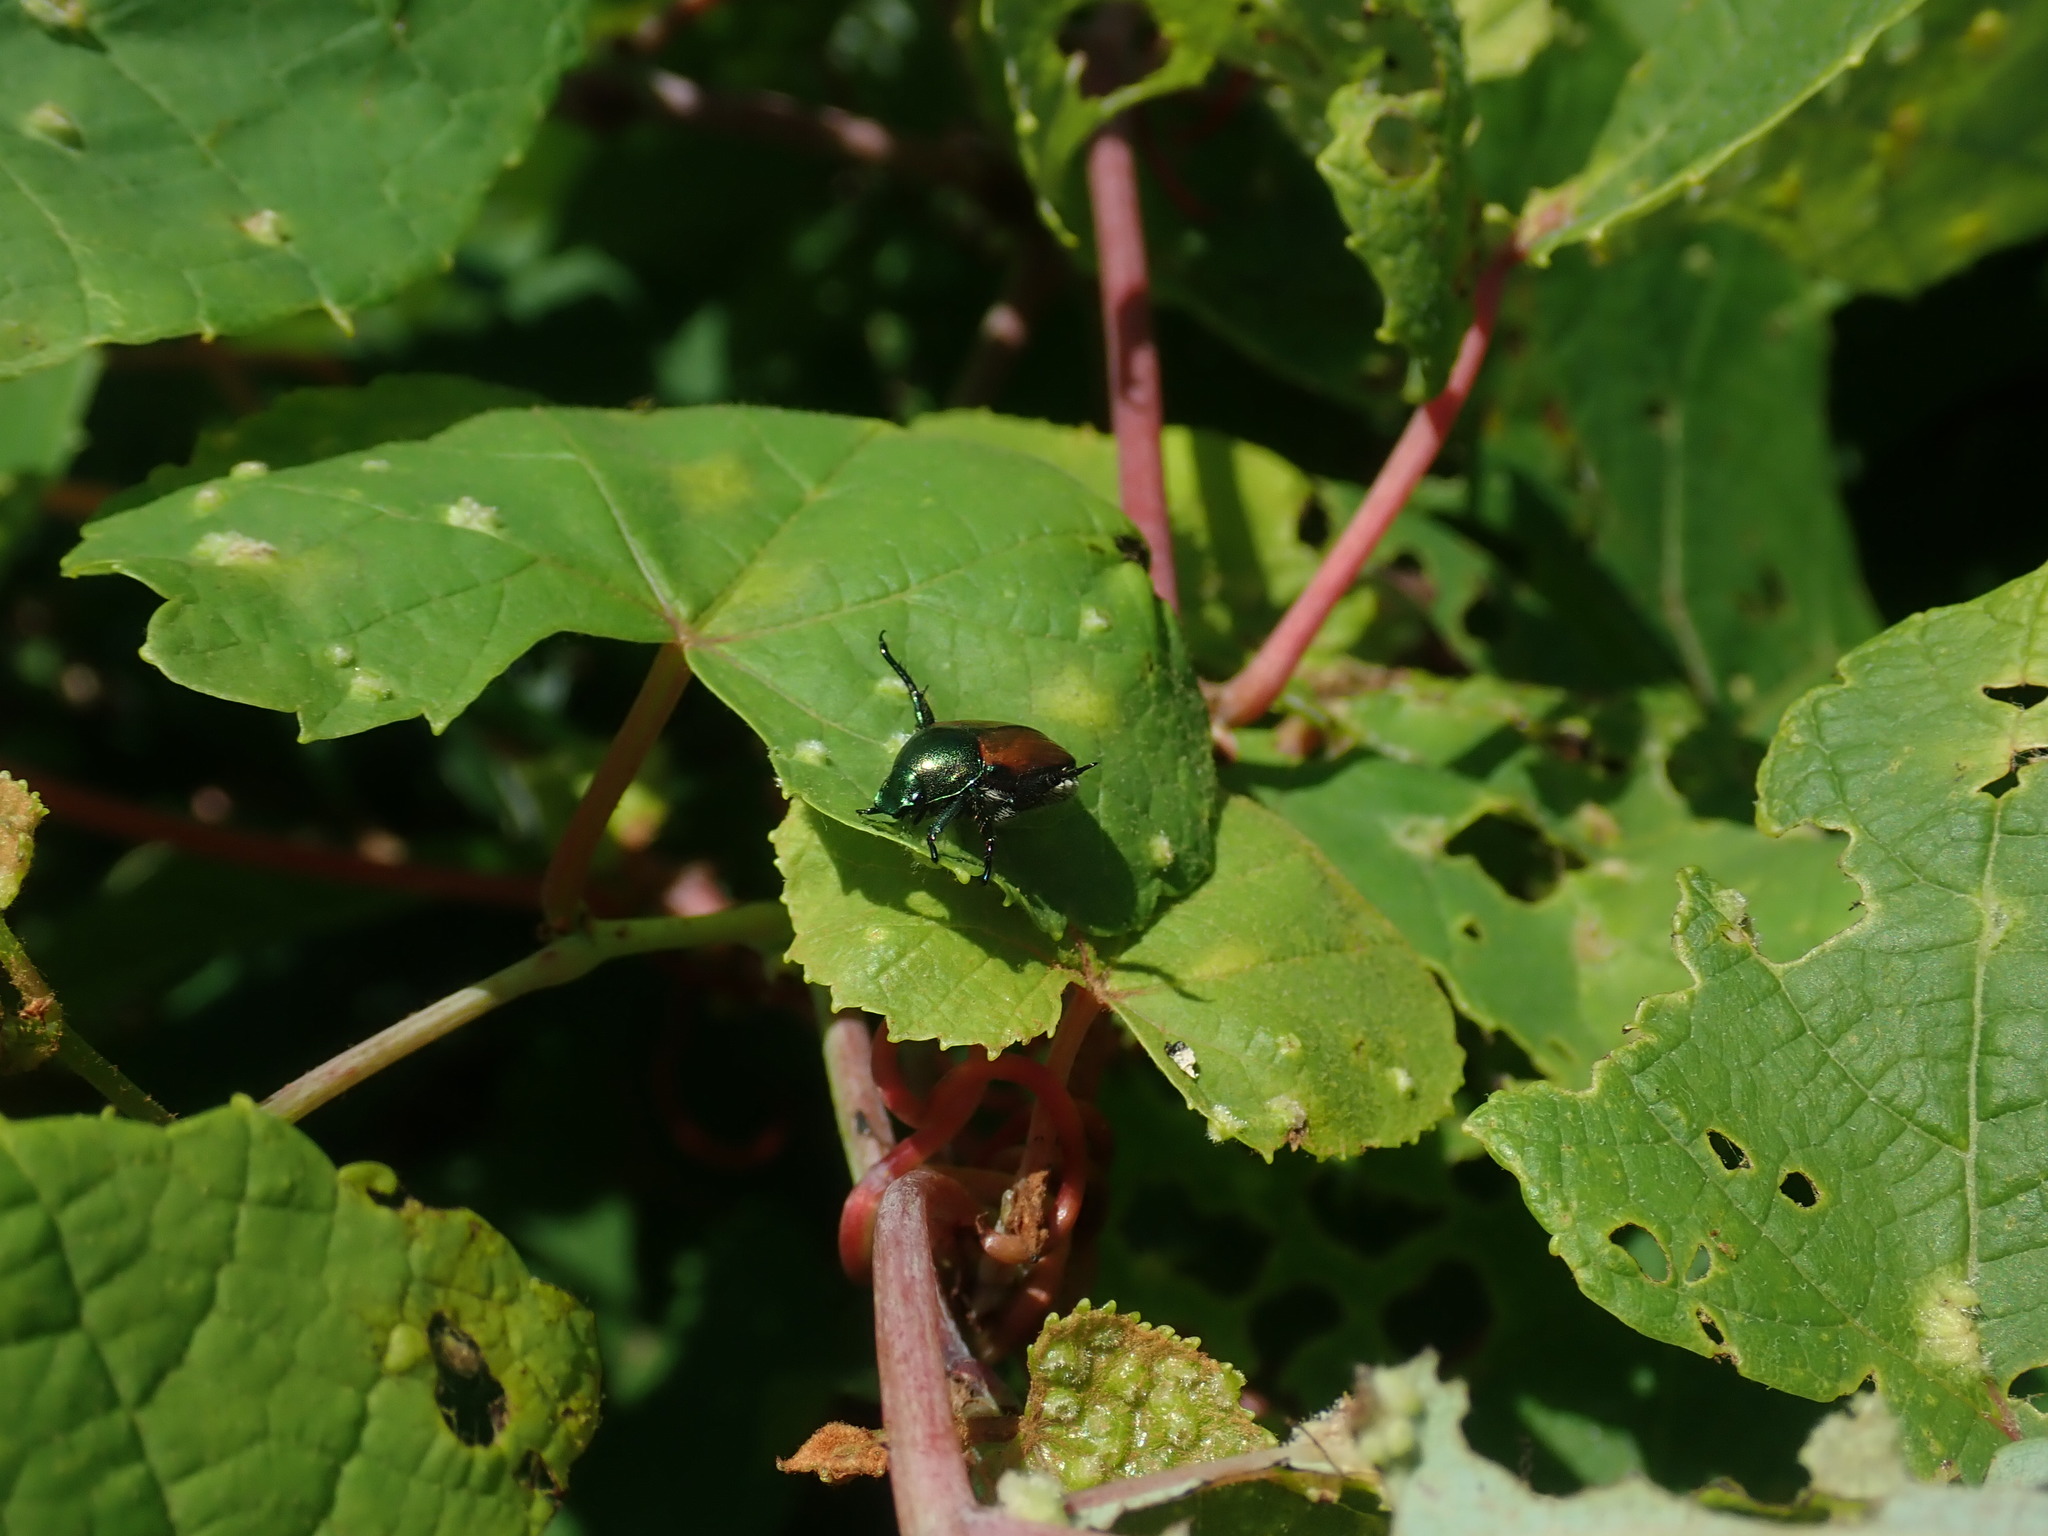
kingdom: Animalia
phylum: Arthropoda
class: Insecta
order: Coleoptera
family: Scarabaeidae
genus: Popillia
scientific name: Popillia japonica
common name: Japanese beetle
